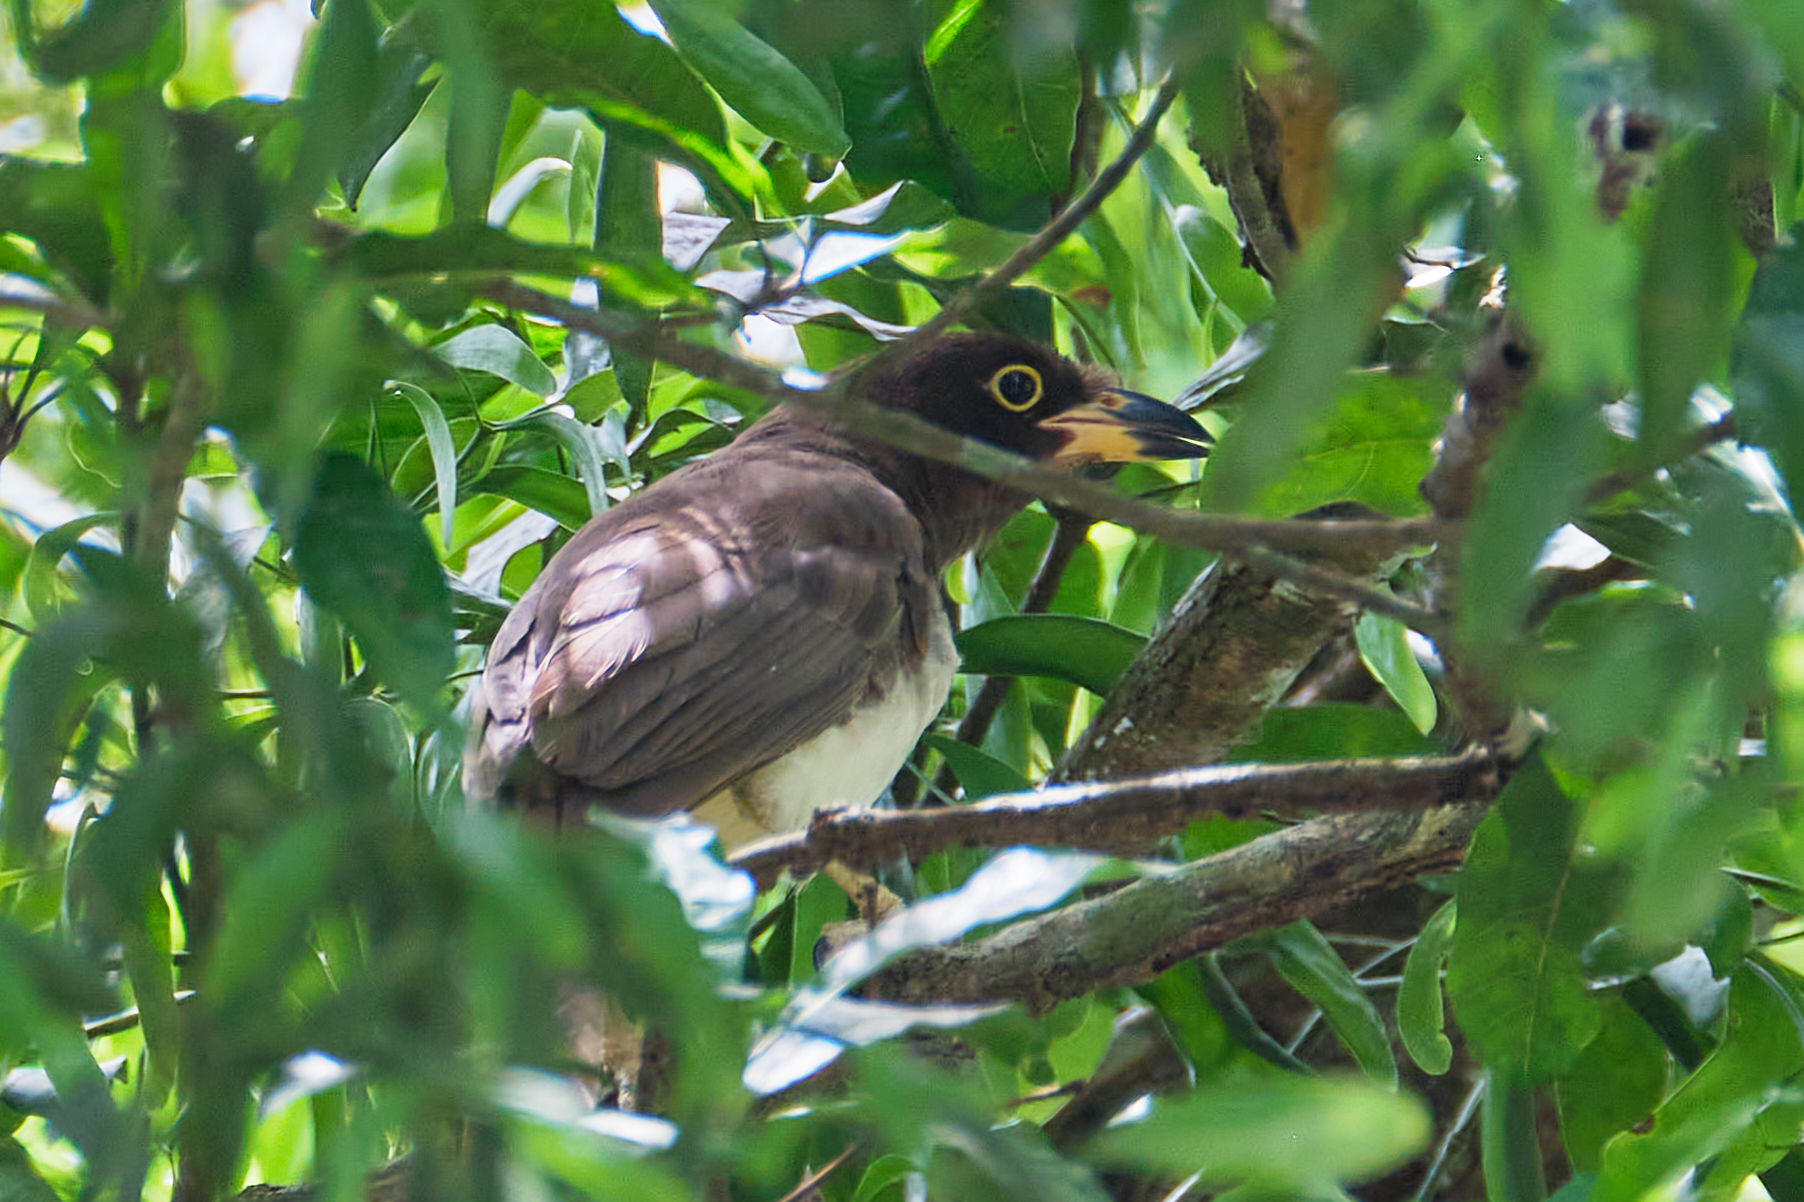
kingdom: Animalia
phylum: Chordata
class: Aves
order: Passeriformes
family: Corvidae
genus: Psilorhinus
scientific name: Psilorhinus morio
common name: Brown jay
